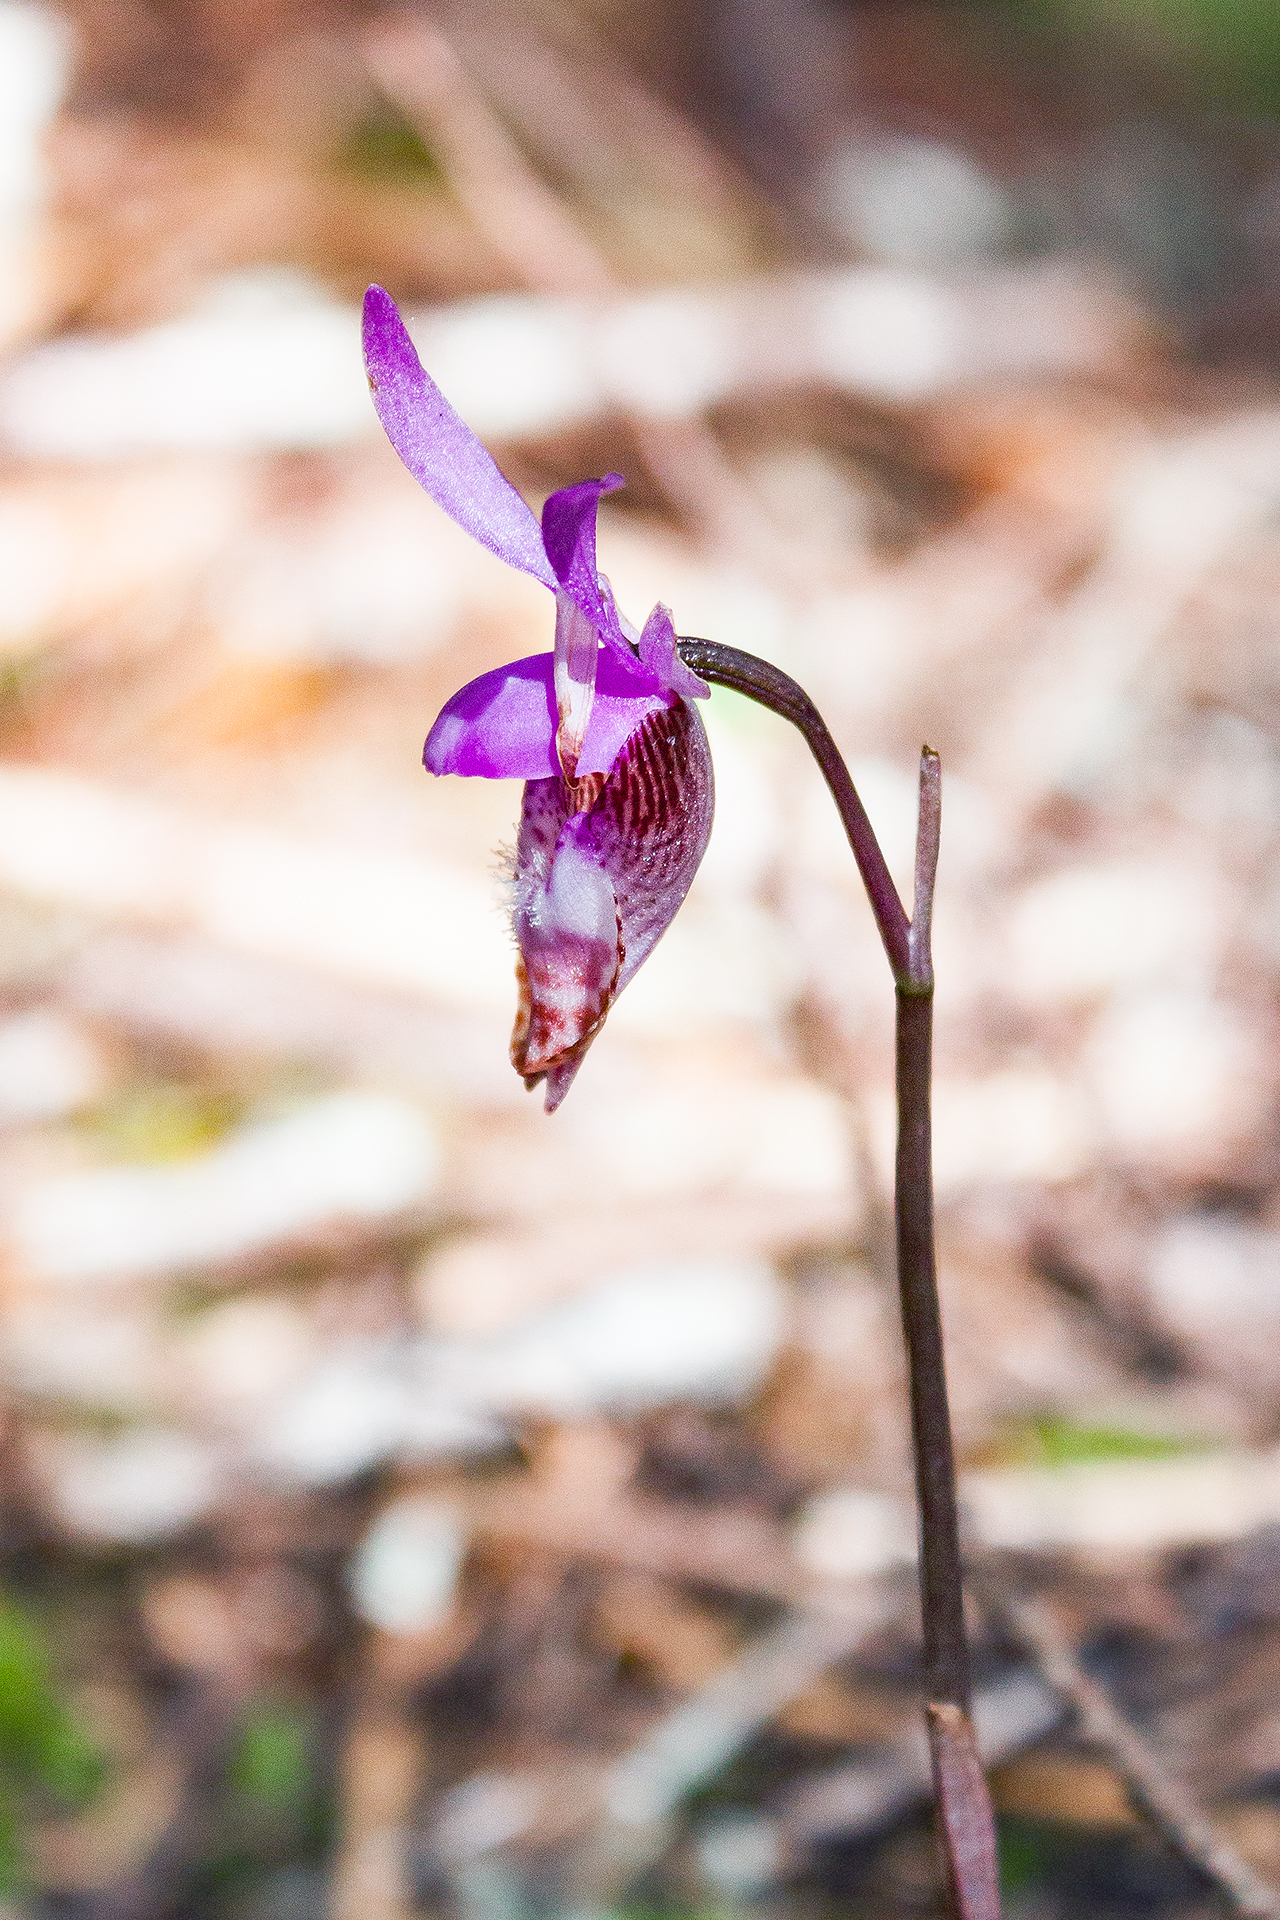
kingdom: Plantae
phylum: Tracheophyta
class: Liliopsida
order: Asparagales
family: Orchidaceae
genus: Calypso
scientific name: Calypso bulbosa
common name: Calypso
